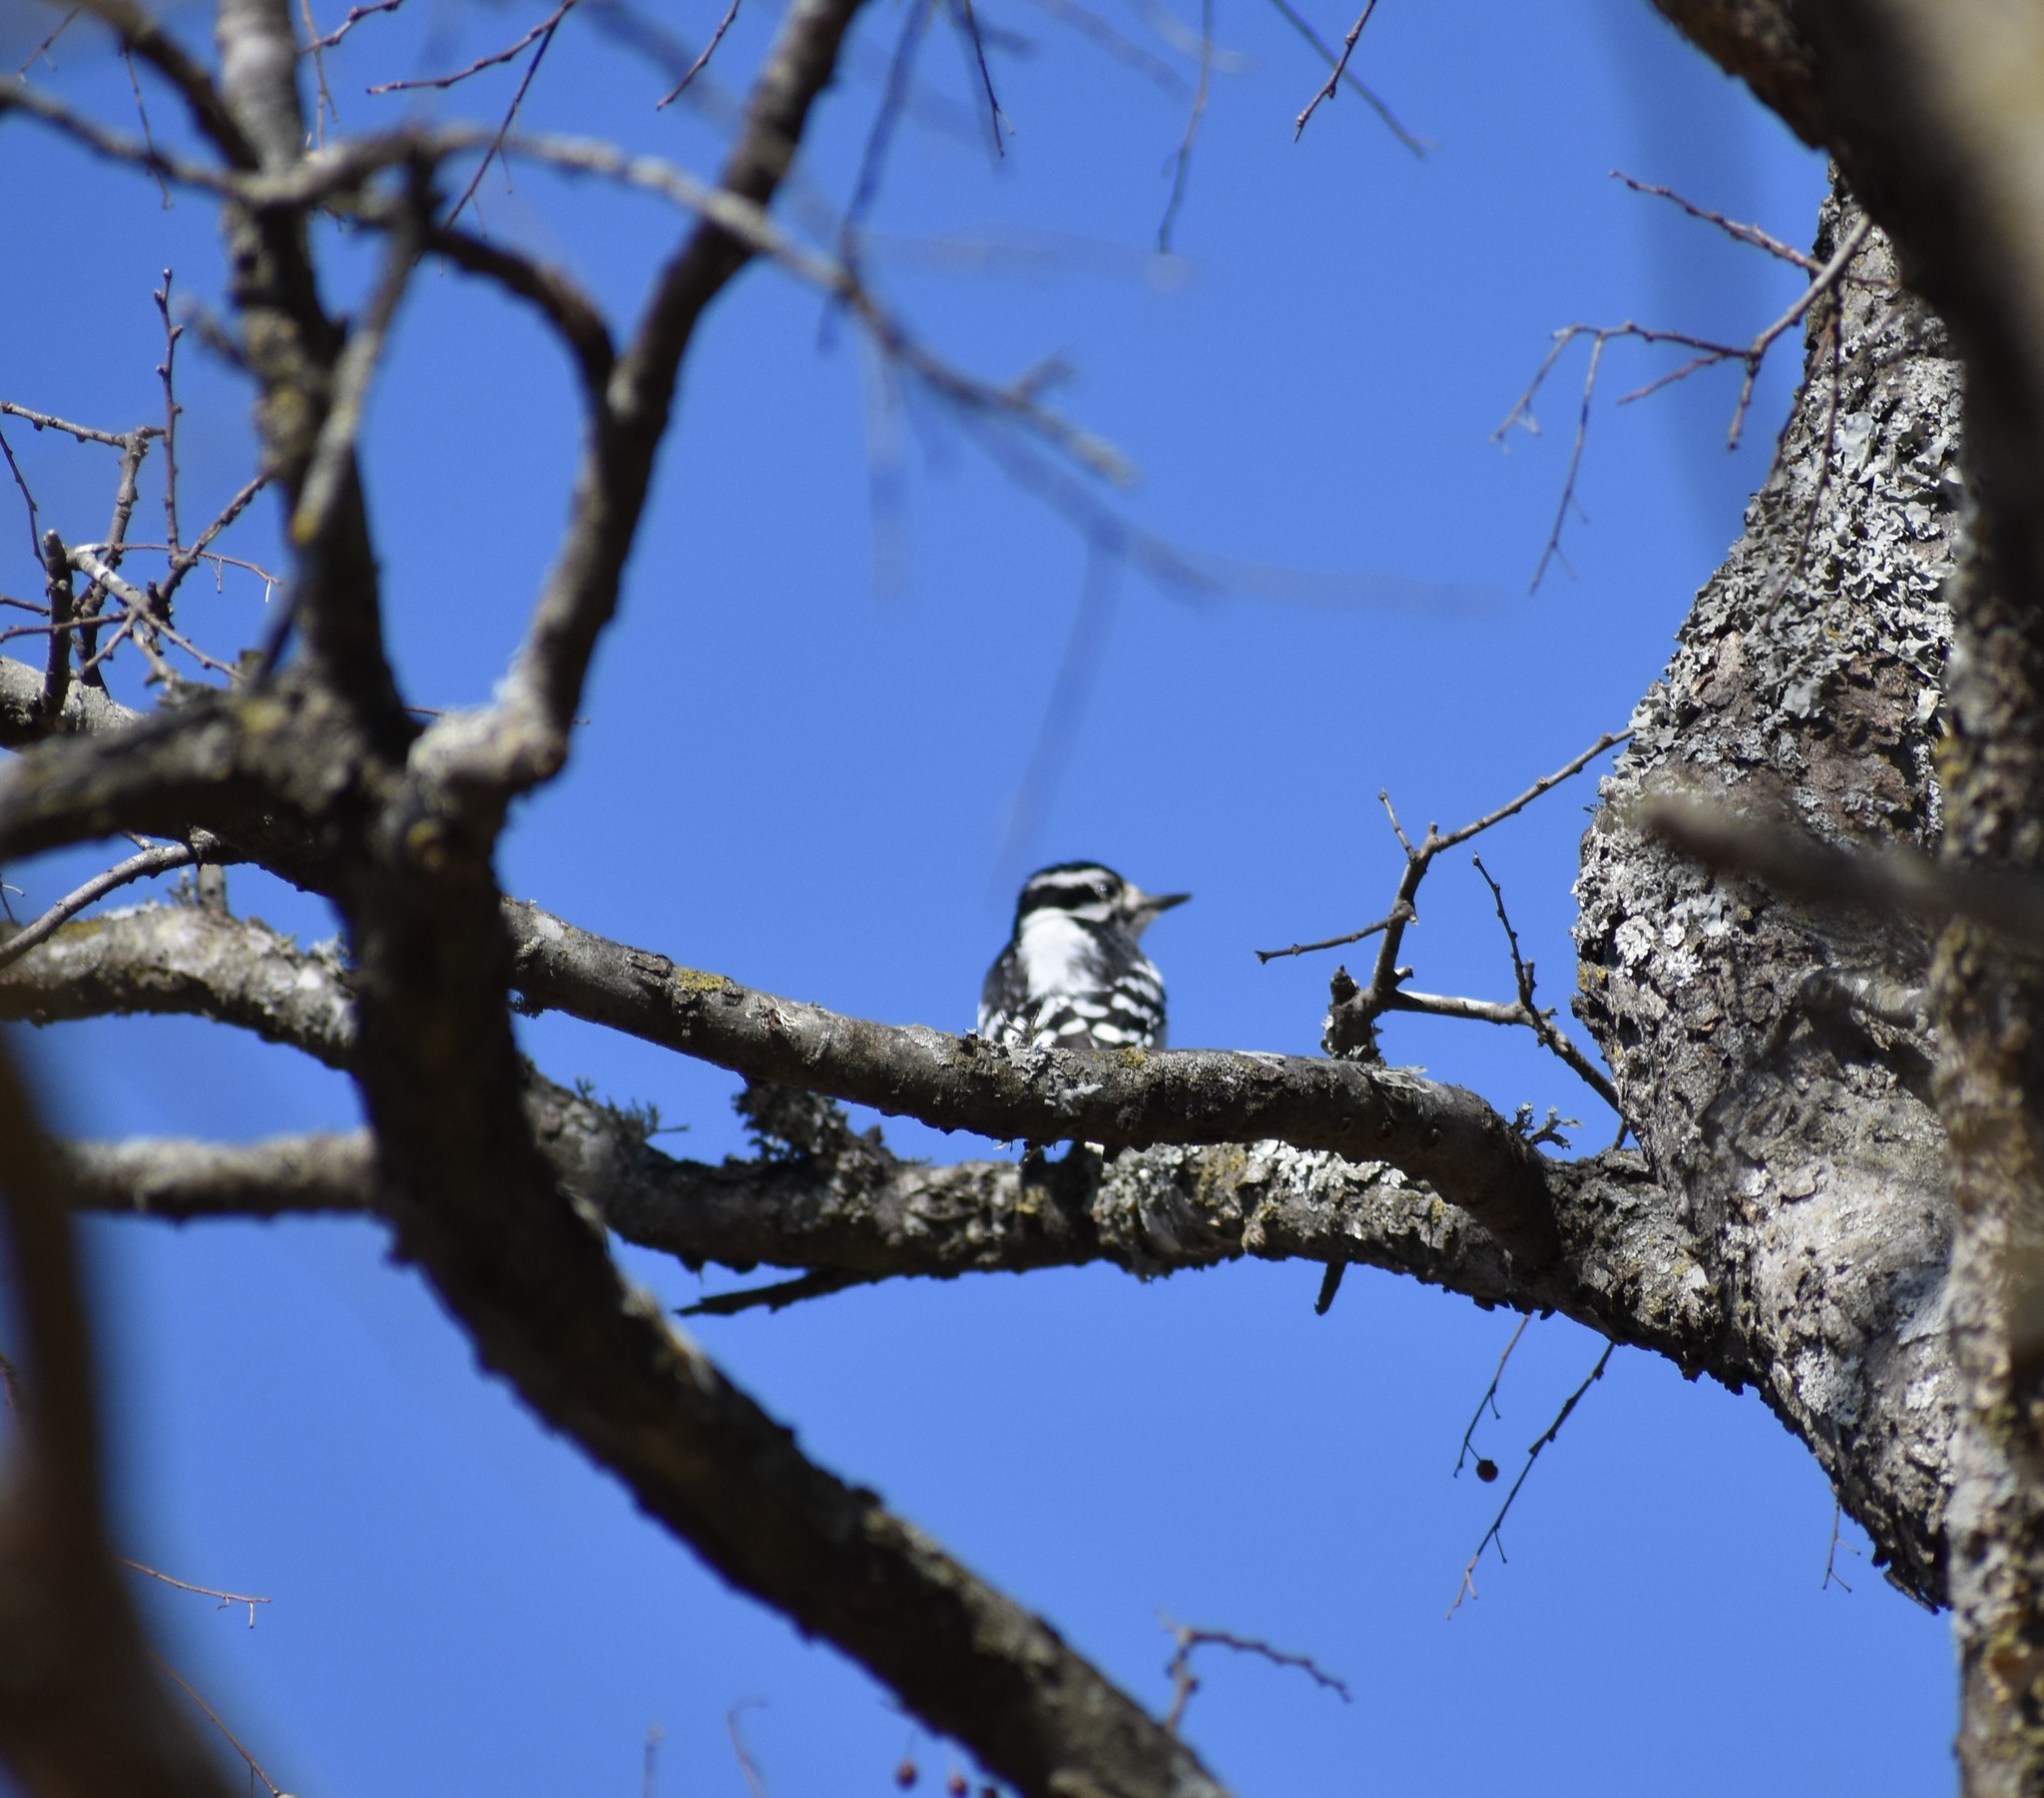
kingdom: Animalia
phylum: Chordata
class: Aves
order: Piciformes
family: Picidae
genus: Dryobates
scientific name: Dryobates pubescens
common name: Downy woodpecker
